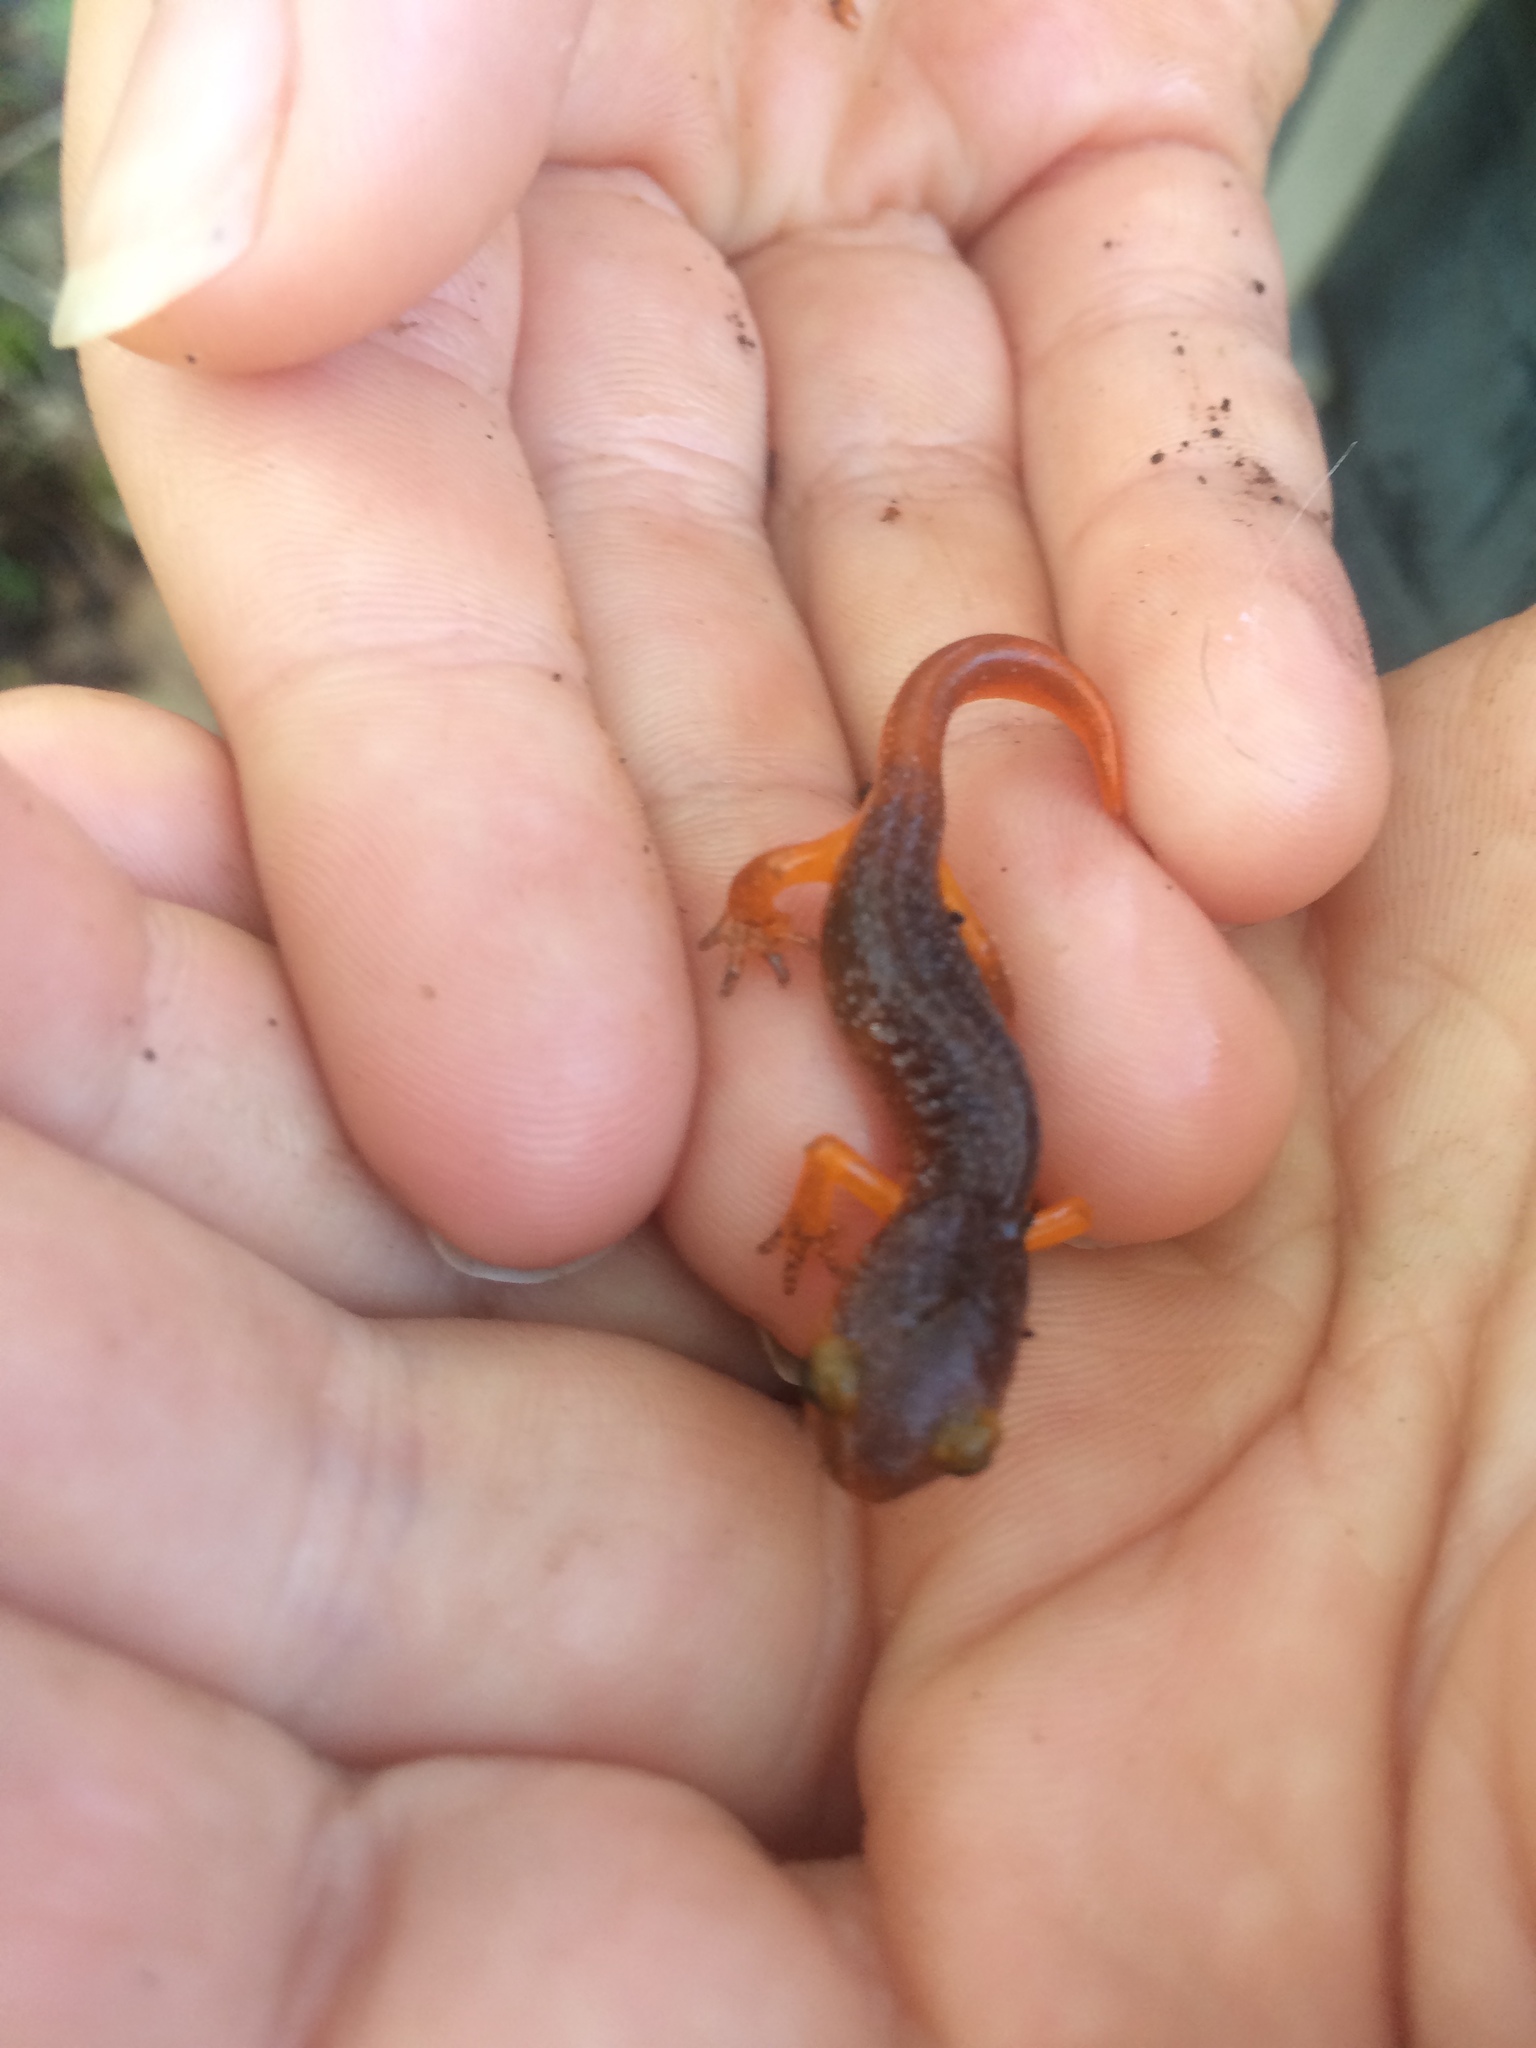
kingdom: Animalia
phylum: Chordata
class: Amphibia
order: Caudata
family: Plethodontidae
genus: Ensatina
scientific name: Ensatina eschscholtzii
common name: Ensatina
